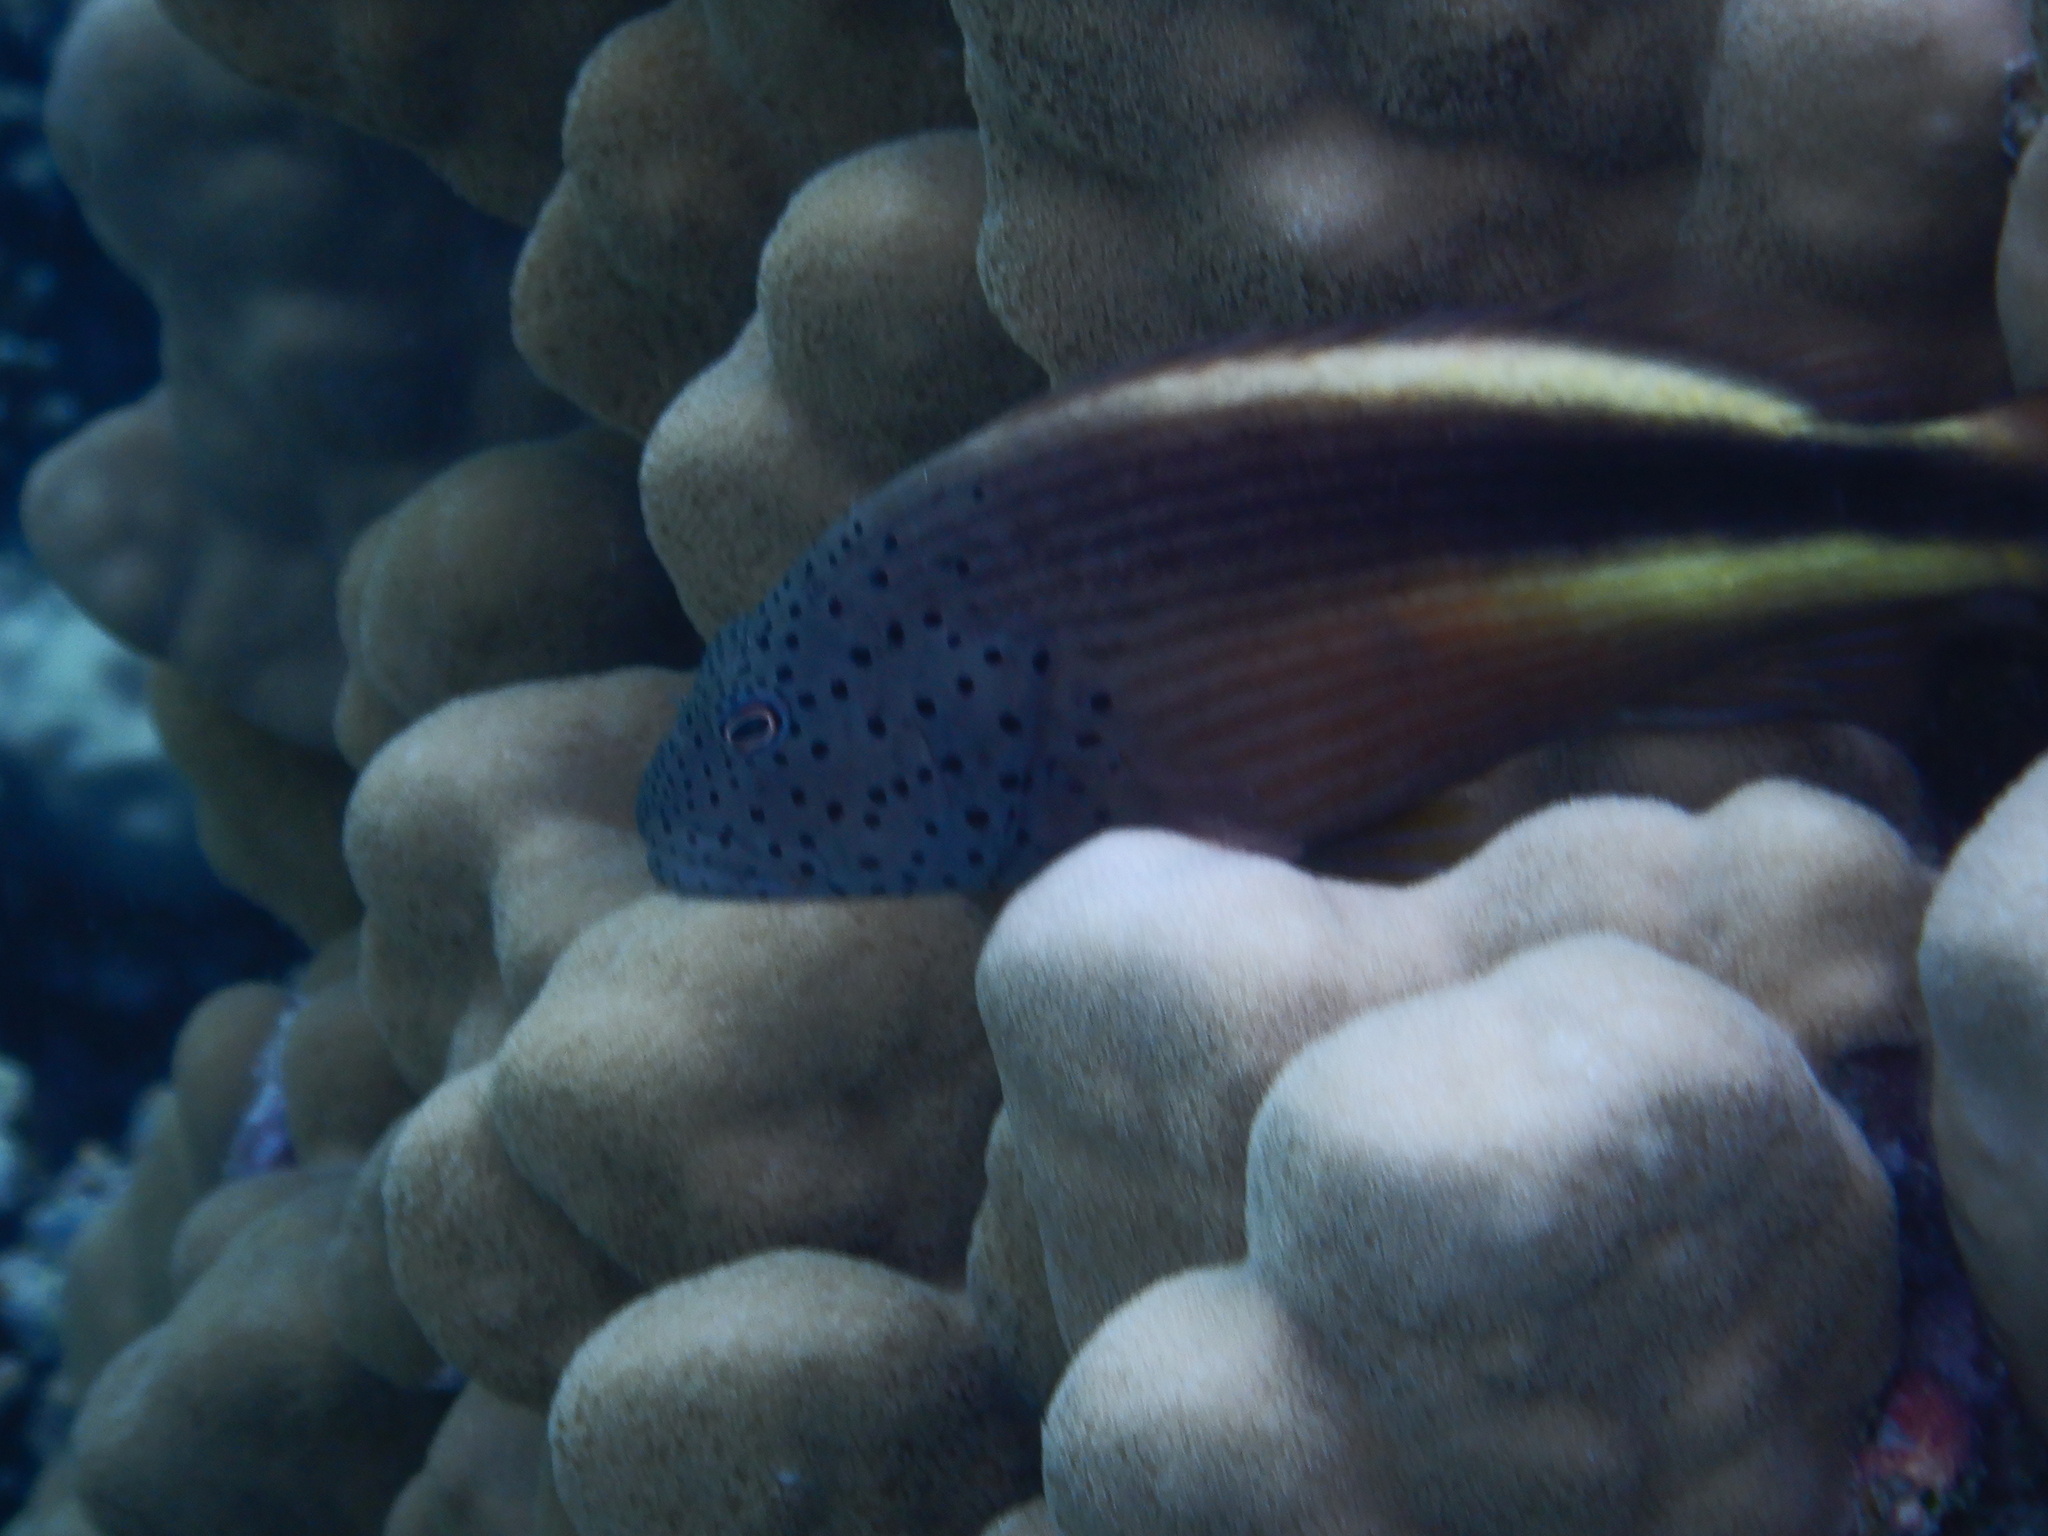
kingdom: Animalia
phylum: Chordata
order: Perciformes
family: Cirrhitidae
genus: Paracirrhites
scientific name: Paracirrhites forsteri
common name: Freckled hawkfish
